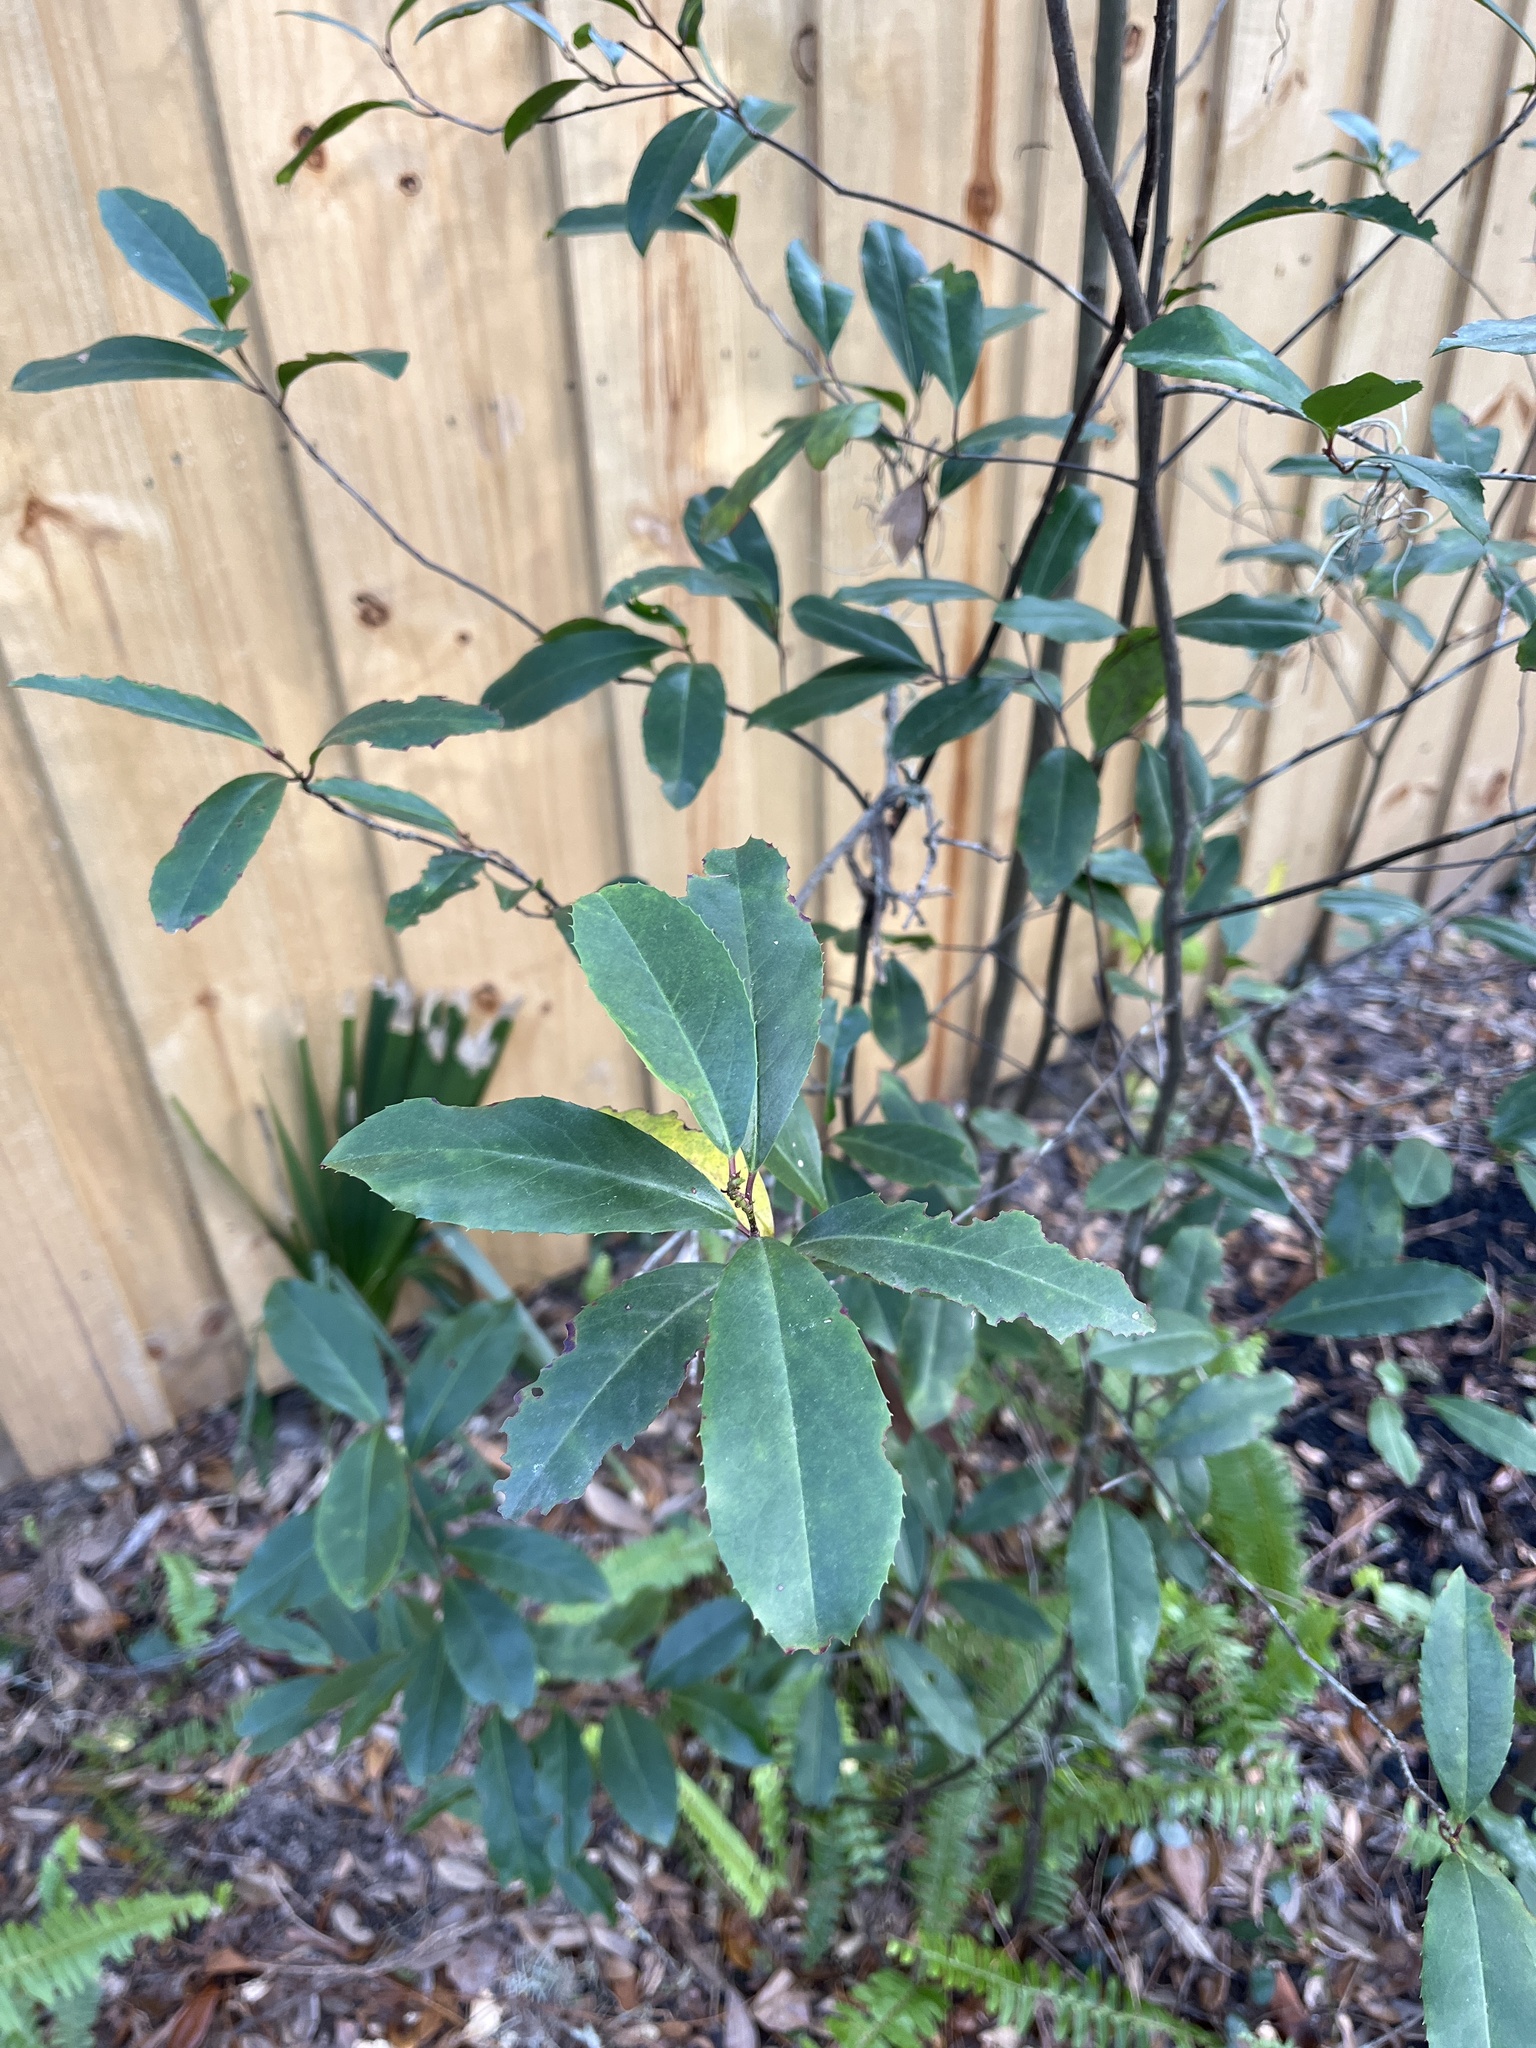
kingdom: Plantae
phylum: Tracheophyta
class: Magnoliopsida
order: Rosales
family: Rosaceae
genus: Prunus
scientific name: Prunus caroliniana
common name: Carolina laurel cherry
